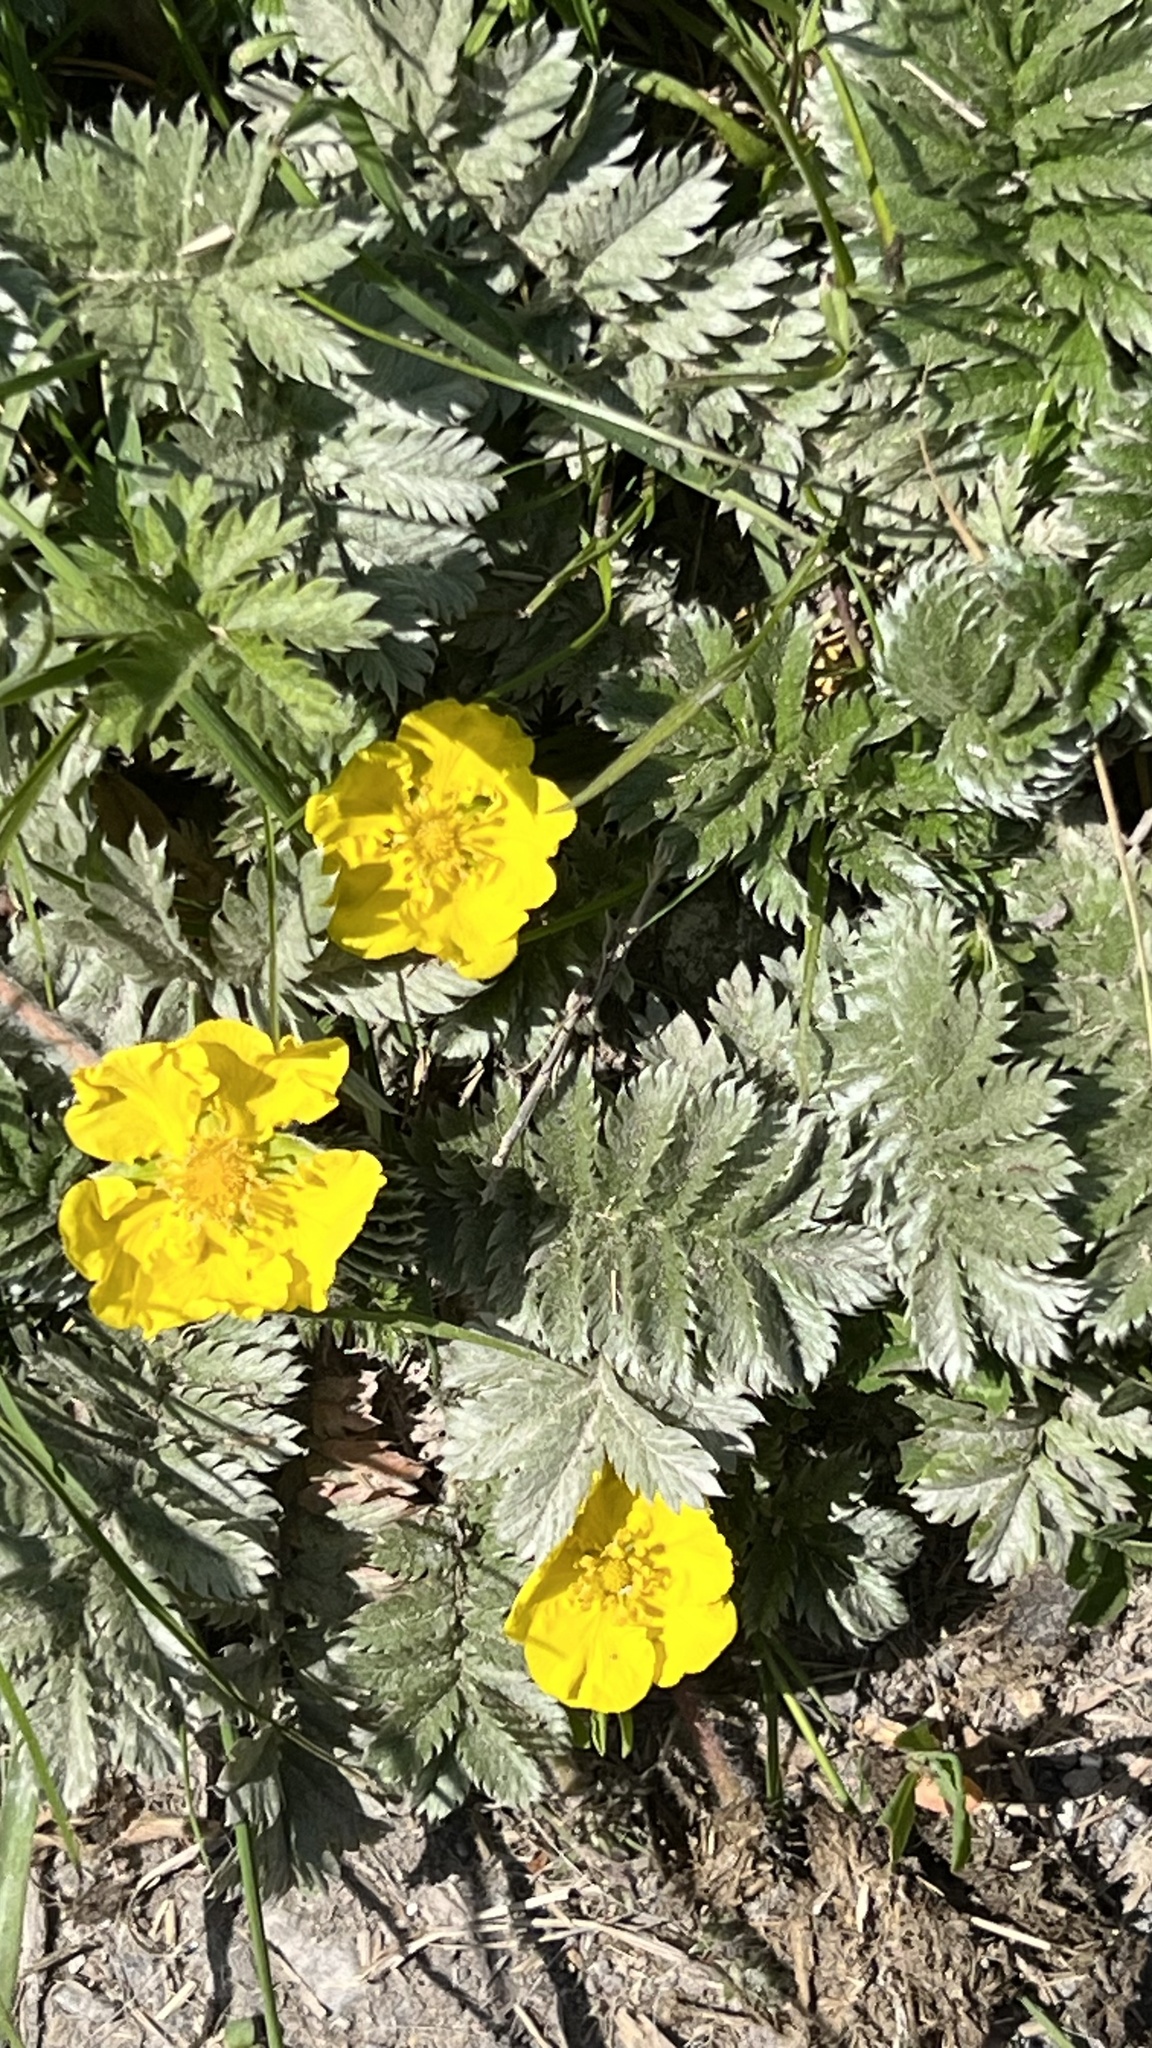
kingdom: Plantae
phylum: Tracheophyta
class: Magnoliopsida
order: Rosales
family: Rosaceae
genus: Argentina
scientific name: Argentina anserina
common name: Common silverweed
